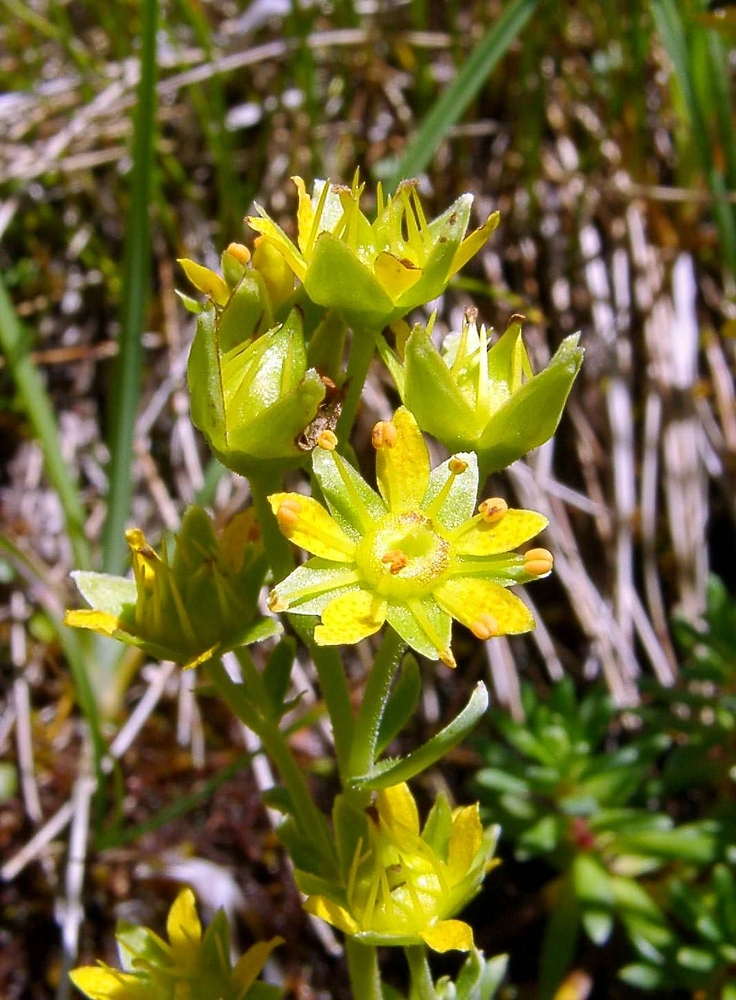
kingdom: Plantae
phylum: Tracheophyta
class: Magnoliopsida
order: Saxifragales
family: Saxifragaceae
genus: Saxifraga
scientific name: Saxifraga aizoides
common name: Yellow mountain saxifrage
